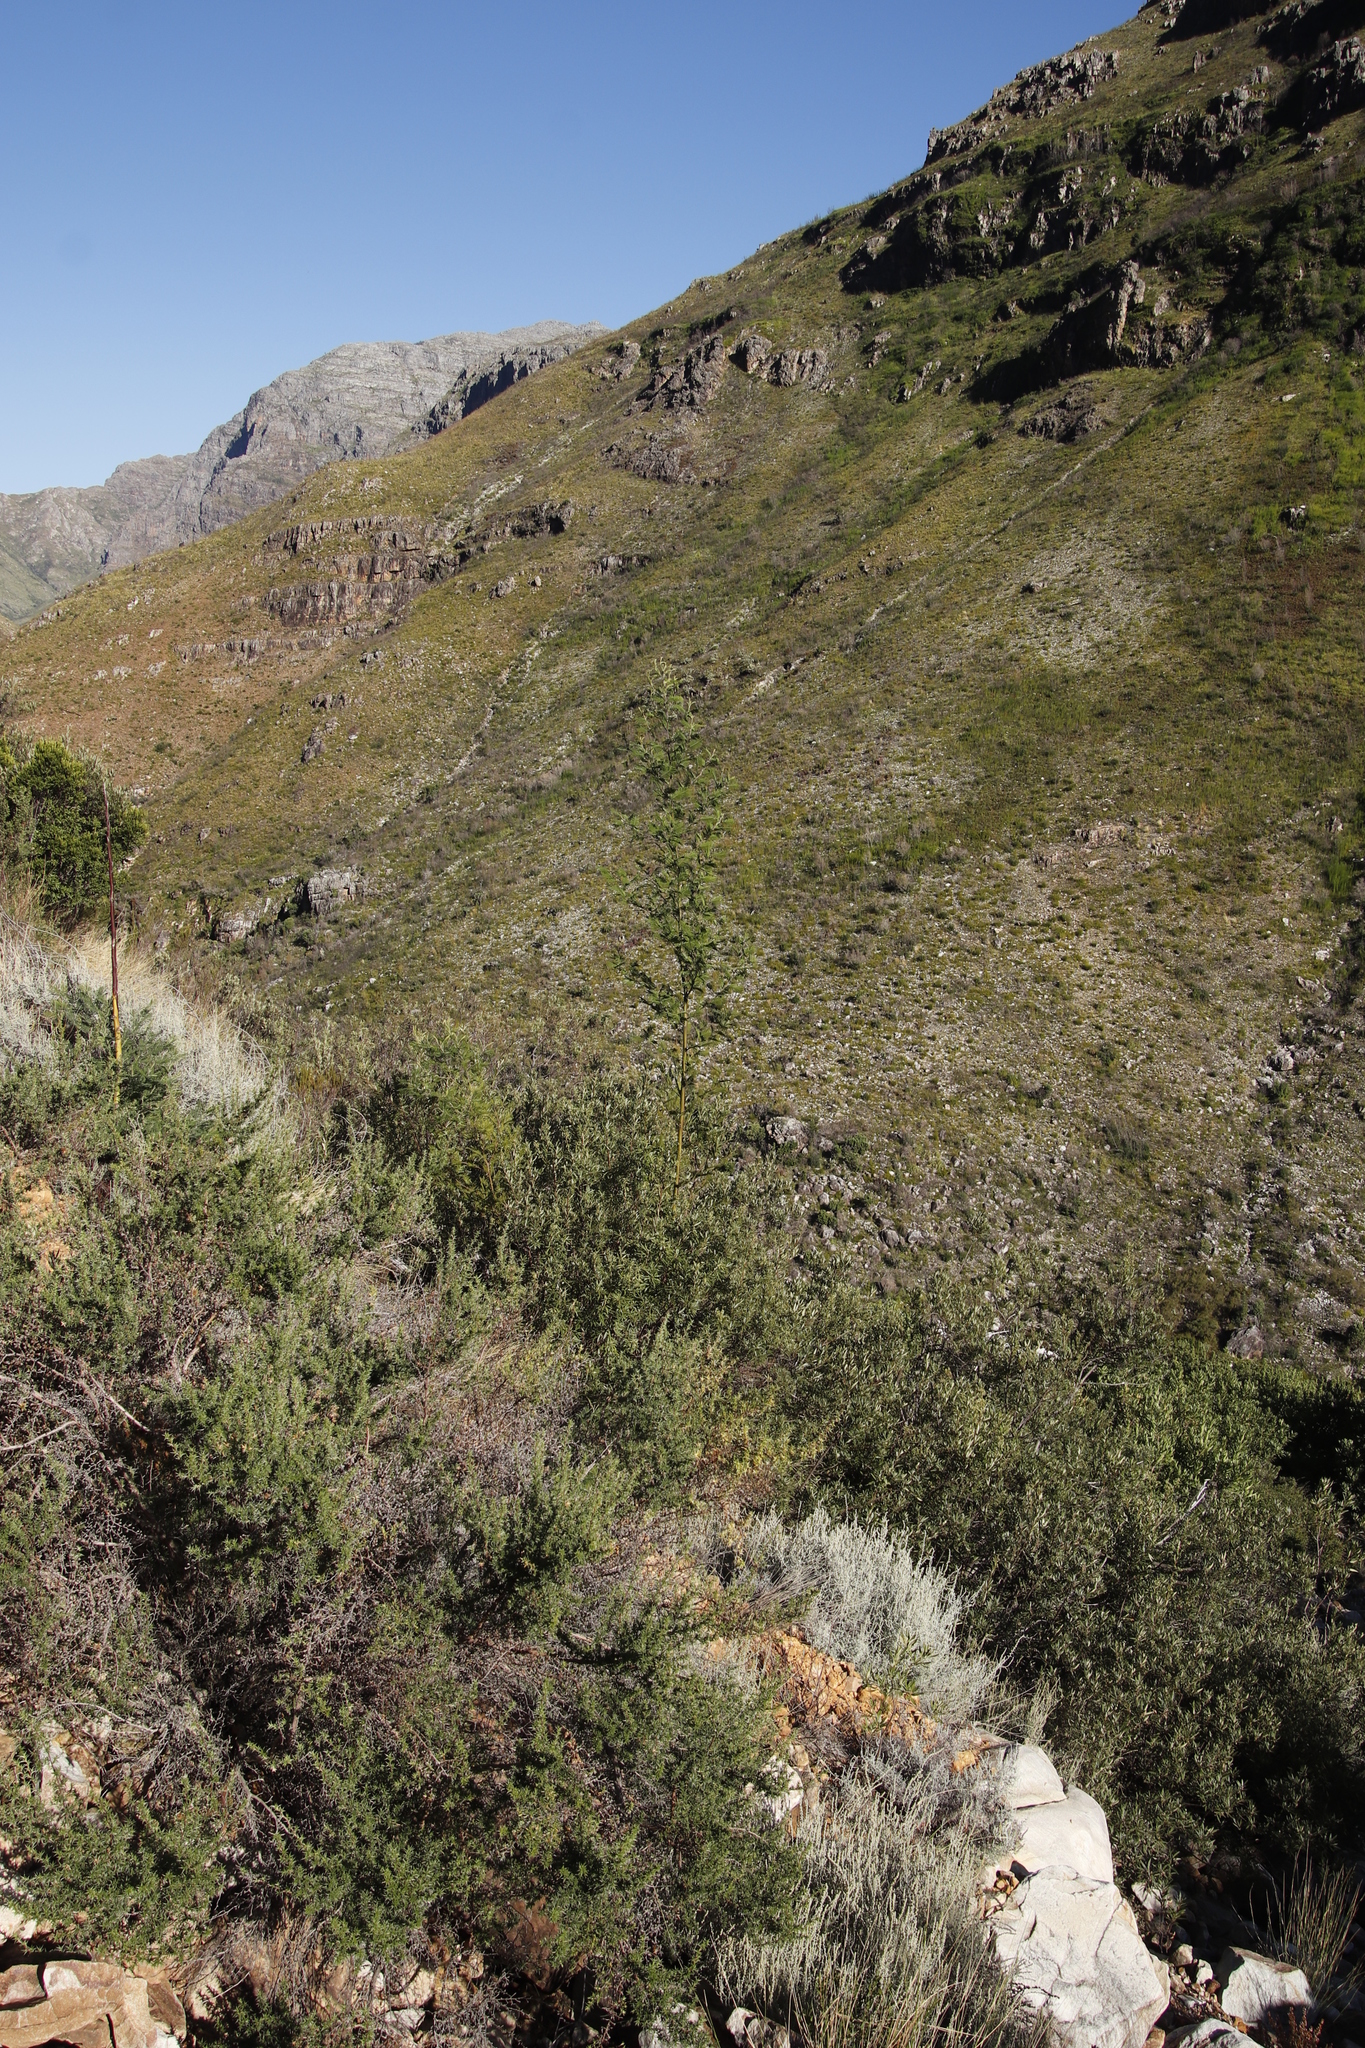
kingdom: Plantae
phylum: Tracheophyta
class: Magnoliopsida
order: Fabales
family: Fabaceae
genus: Acacia
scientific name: Acacia mearnsii
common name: Black wattle
